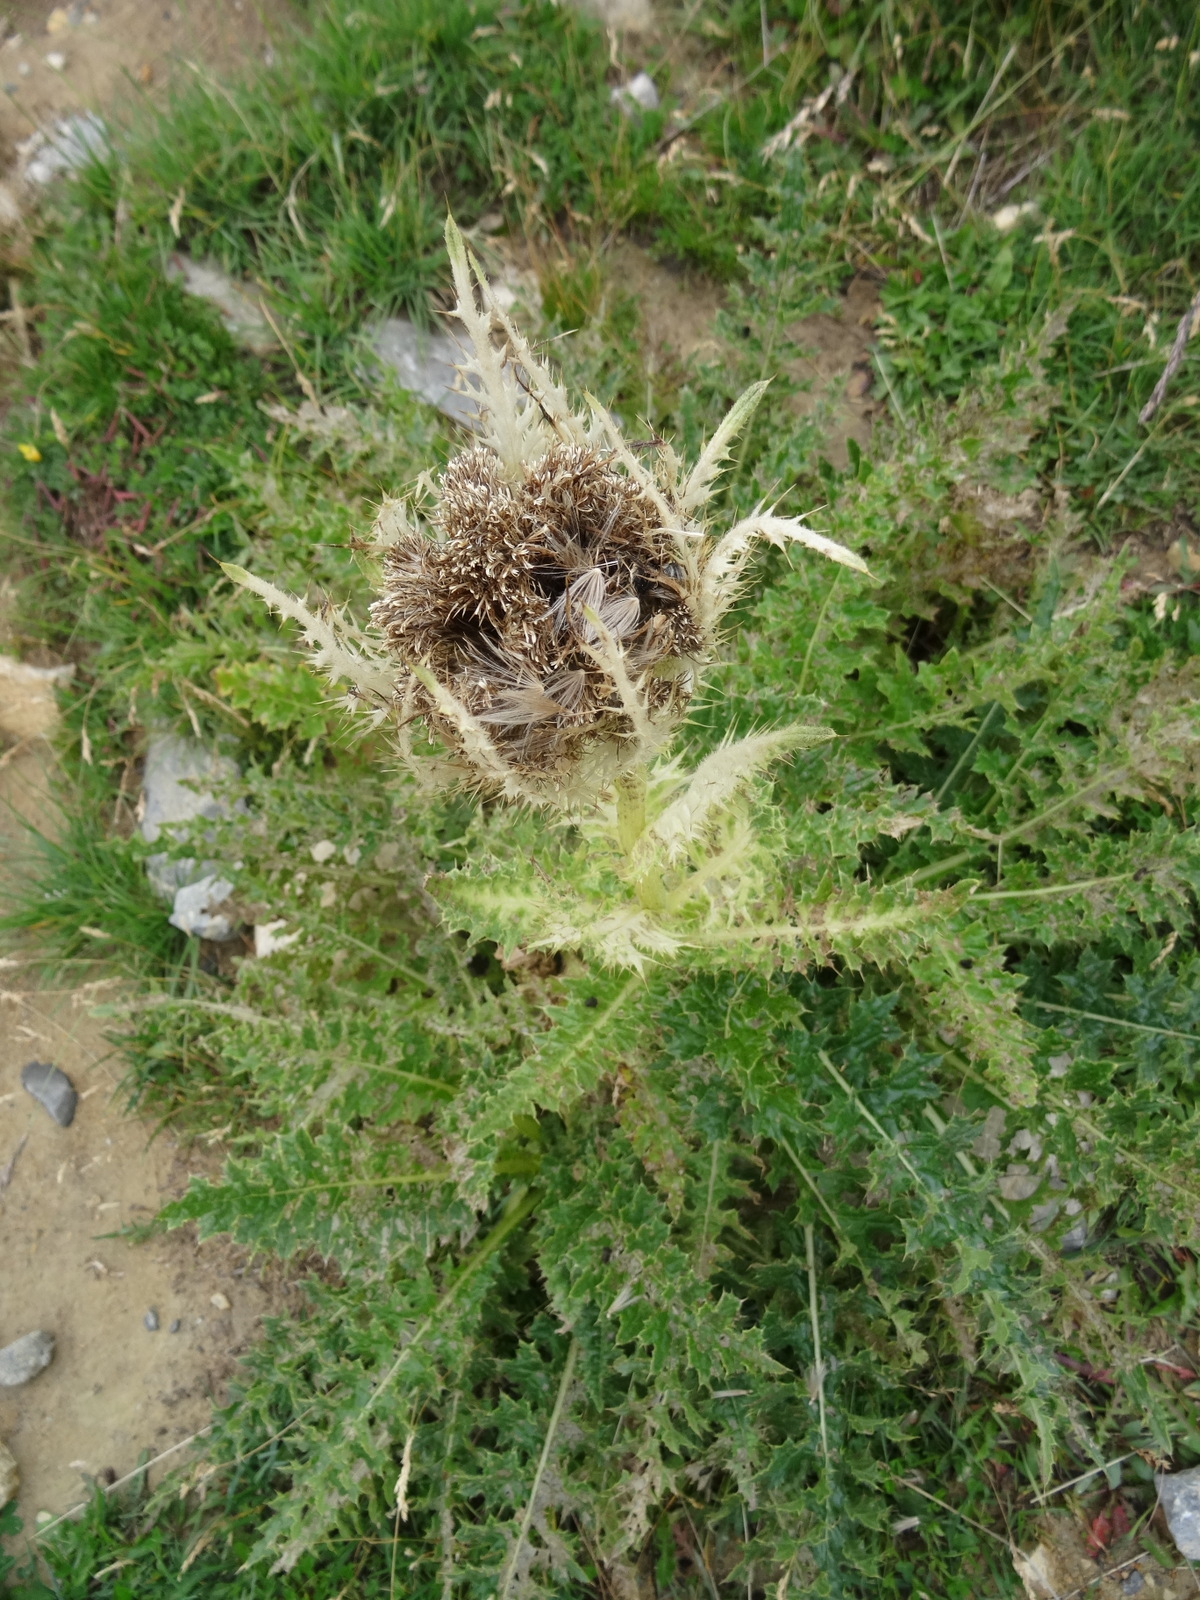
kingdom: Plantae
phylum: Tracheophyta
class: Magnoliopsida
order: Asterales
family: Asteraceae
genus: Cirsium
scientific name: Cirsium spinosissimum
